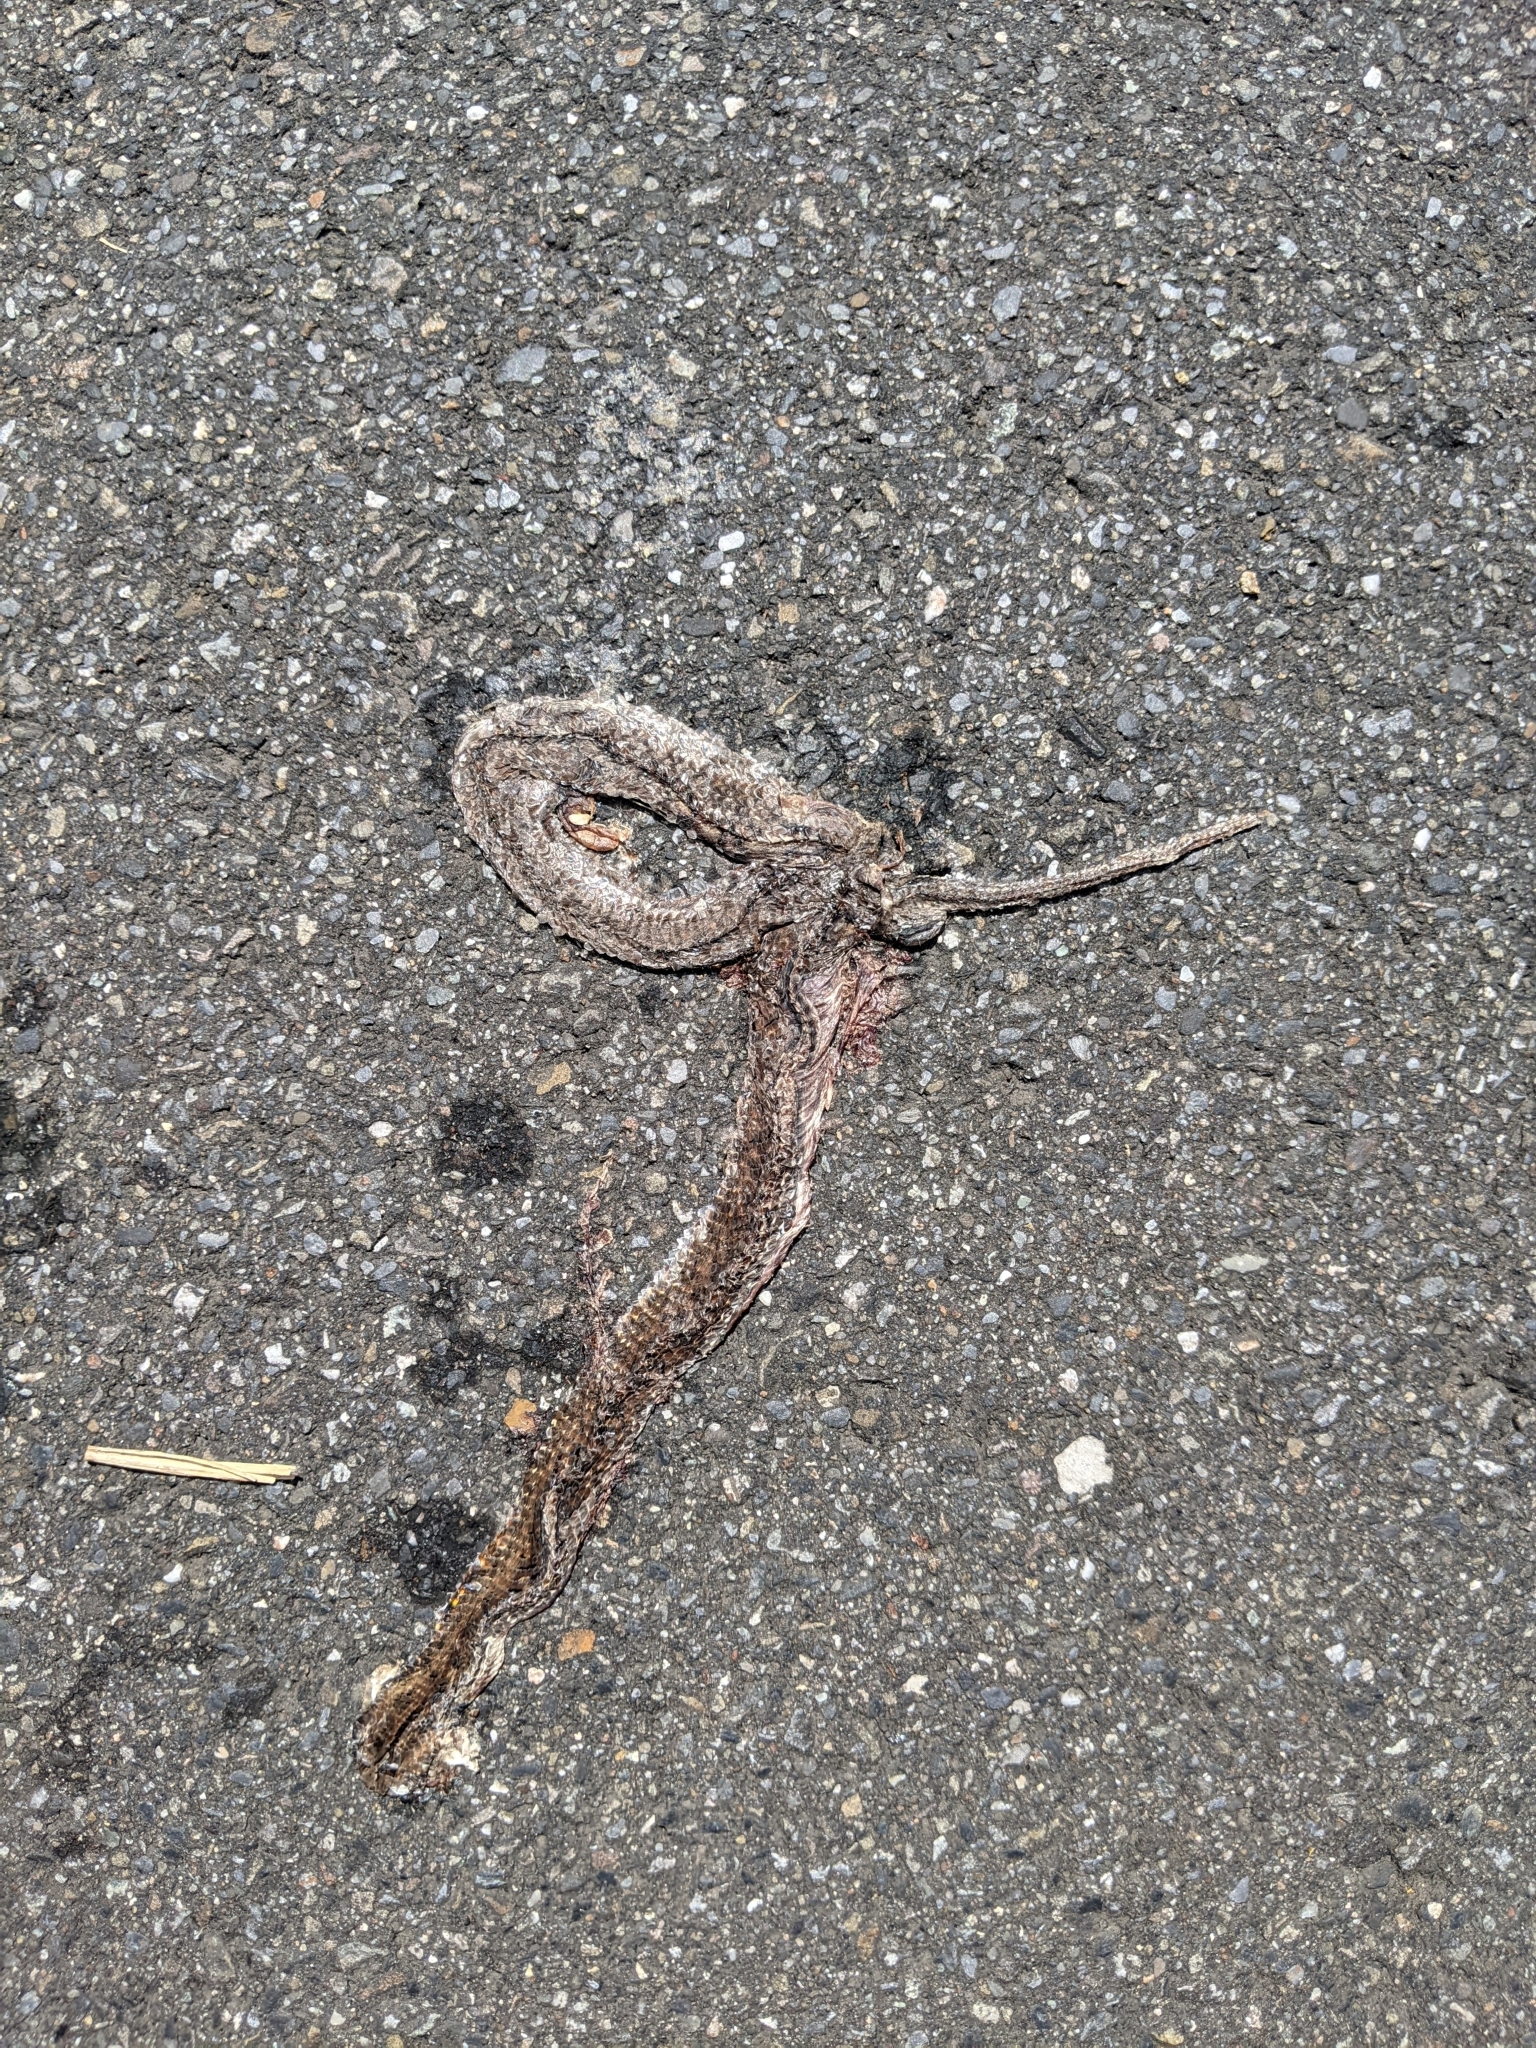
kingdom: Animalia
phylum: Chordata
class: Squamata
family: Pareidae
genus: Pareas
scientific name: Pareas atayal
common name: Atayal slug-eating snake
